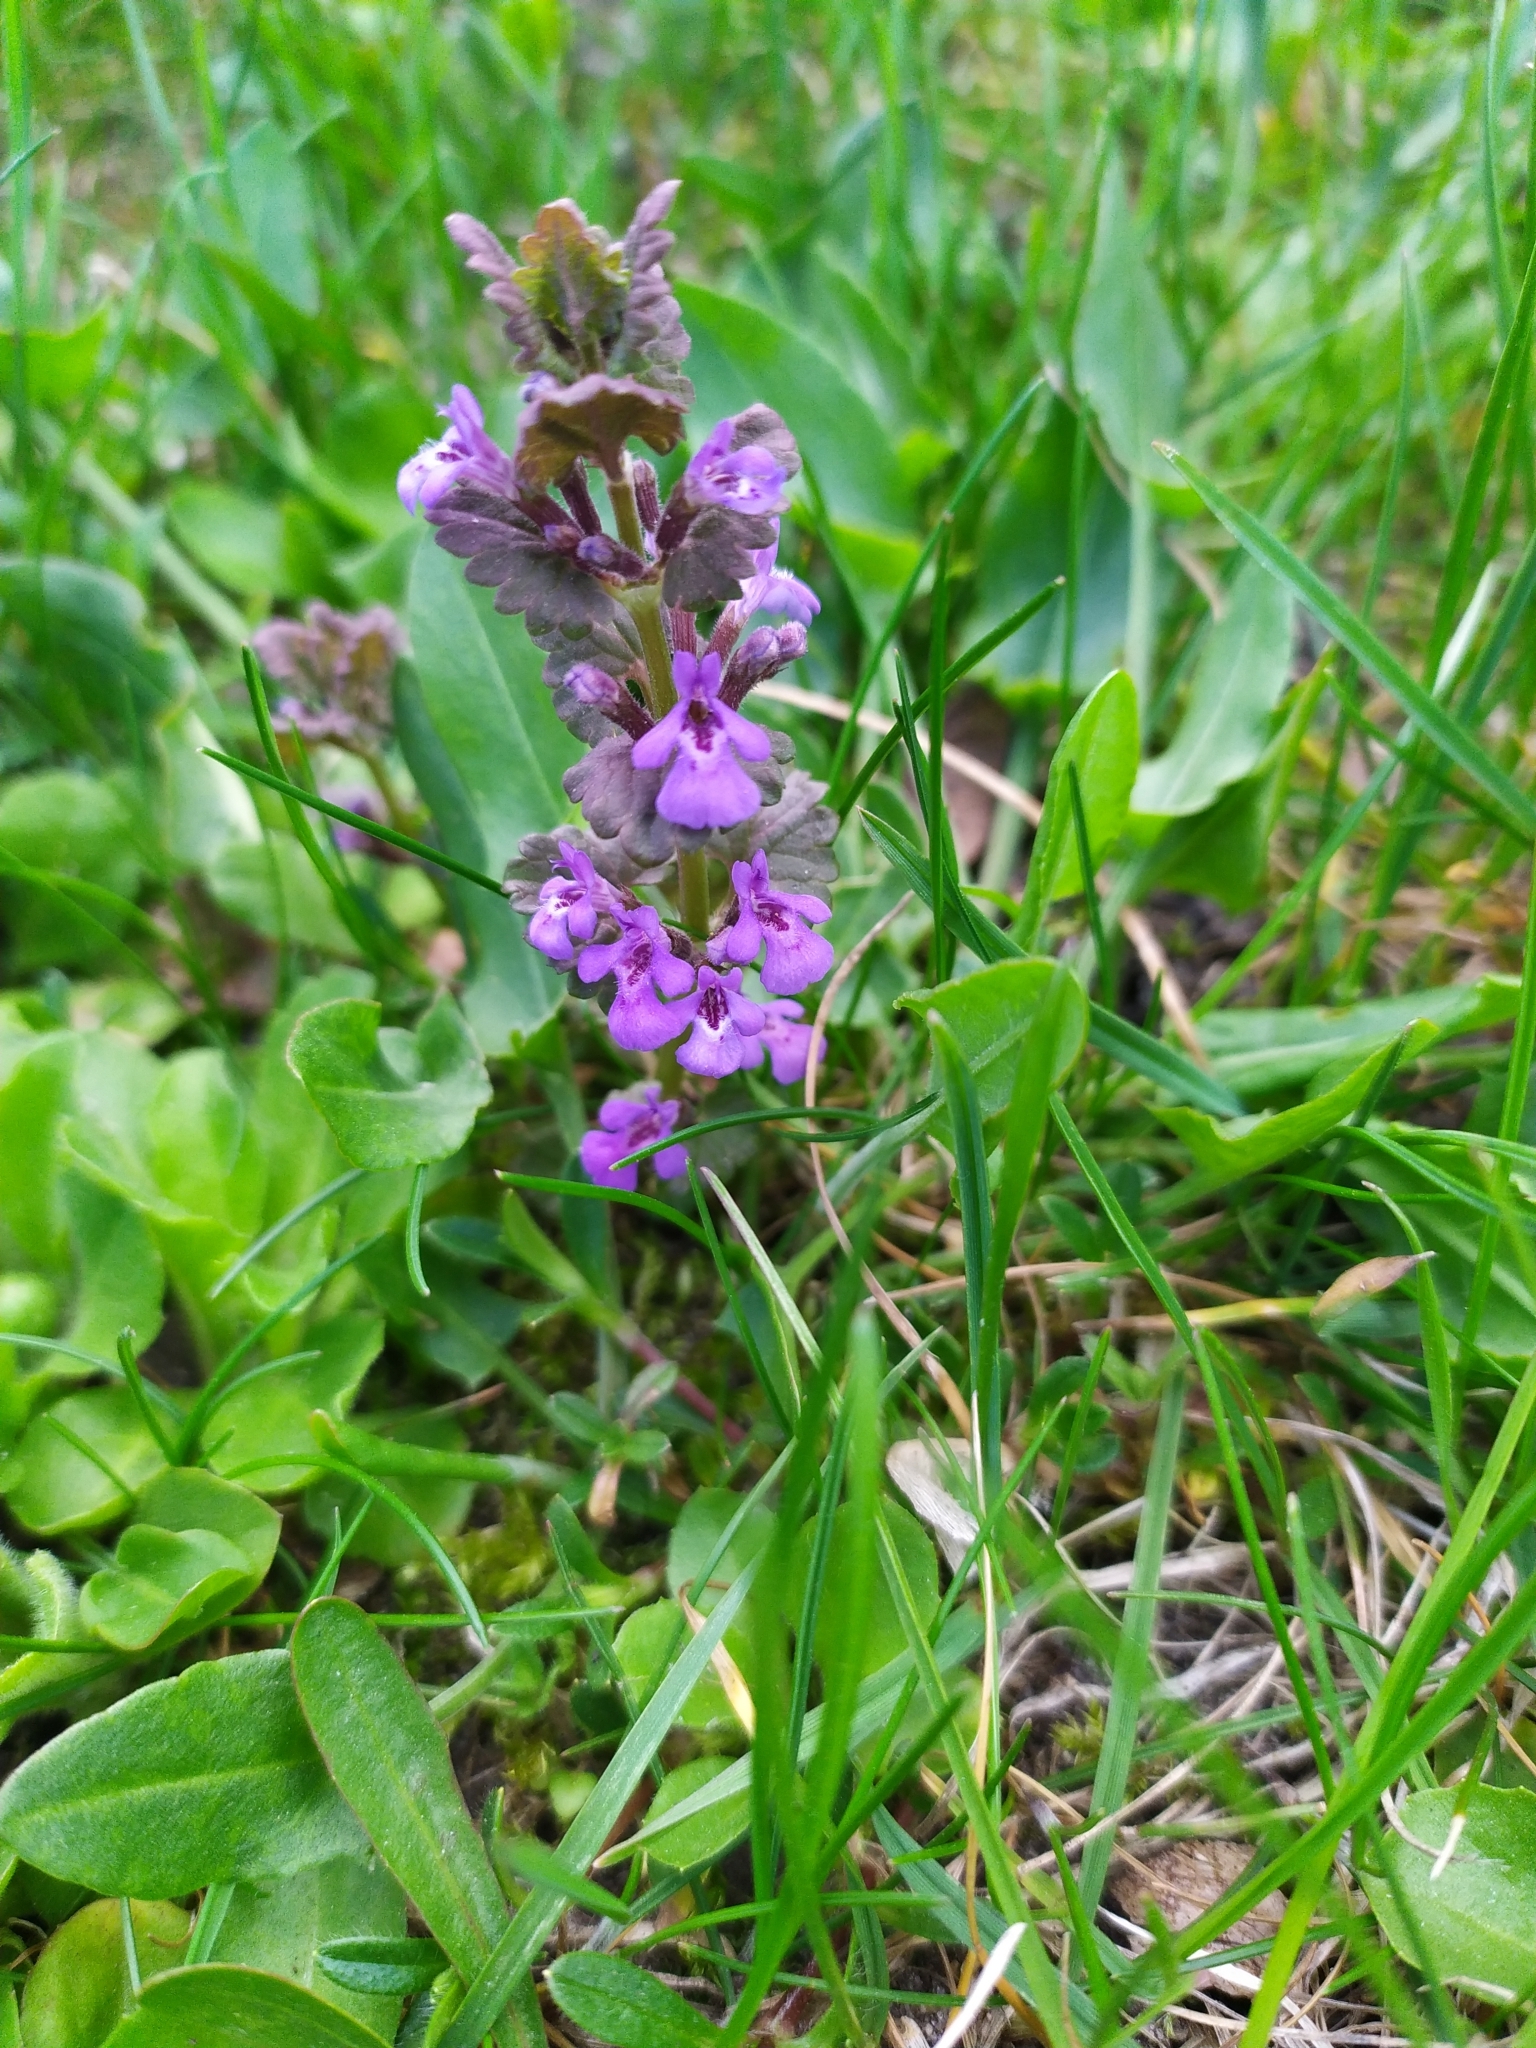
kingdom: Plantae
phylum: Tracheophyta
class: Magnoliopsida
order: Lamiales
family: Lamiaceae
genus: Glechoma
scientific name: Glechoma hederacea
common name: Ground ivy
